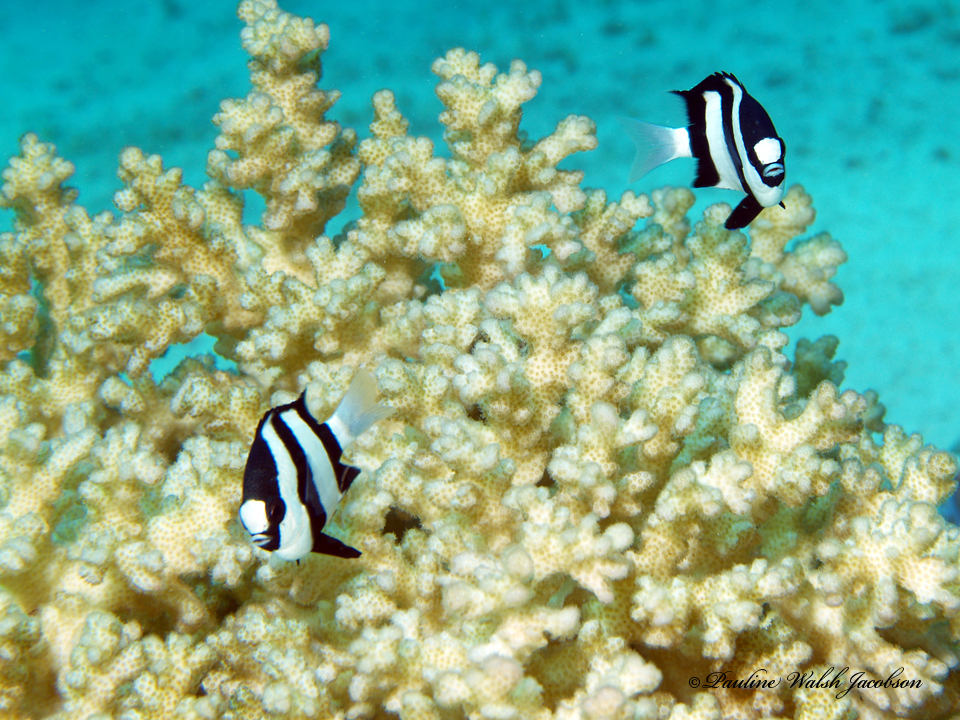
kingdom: Animalia
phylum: Chordata
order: Perciformes
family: Pomacentridae
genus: Dascyllus
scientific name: Dascyllus abudafur
